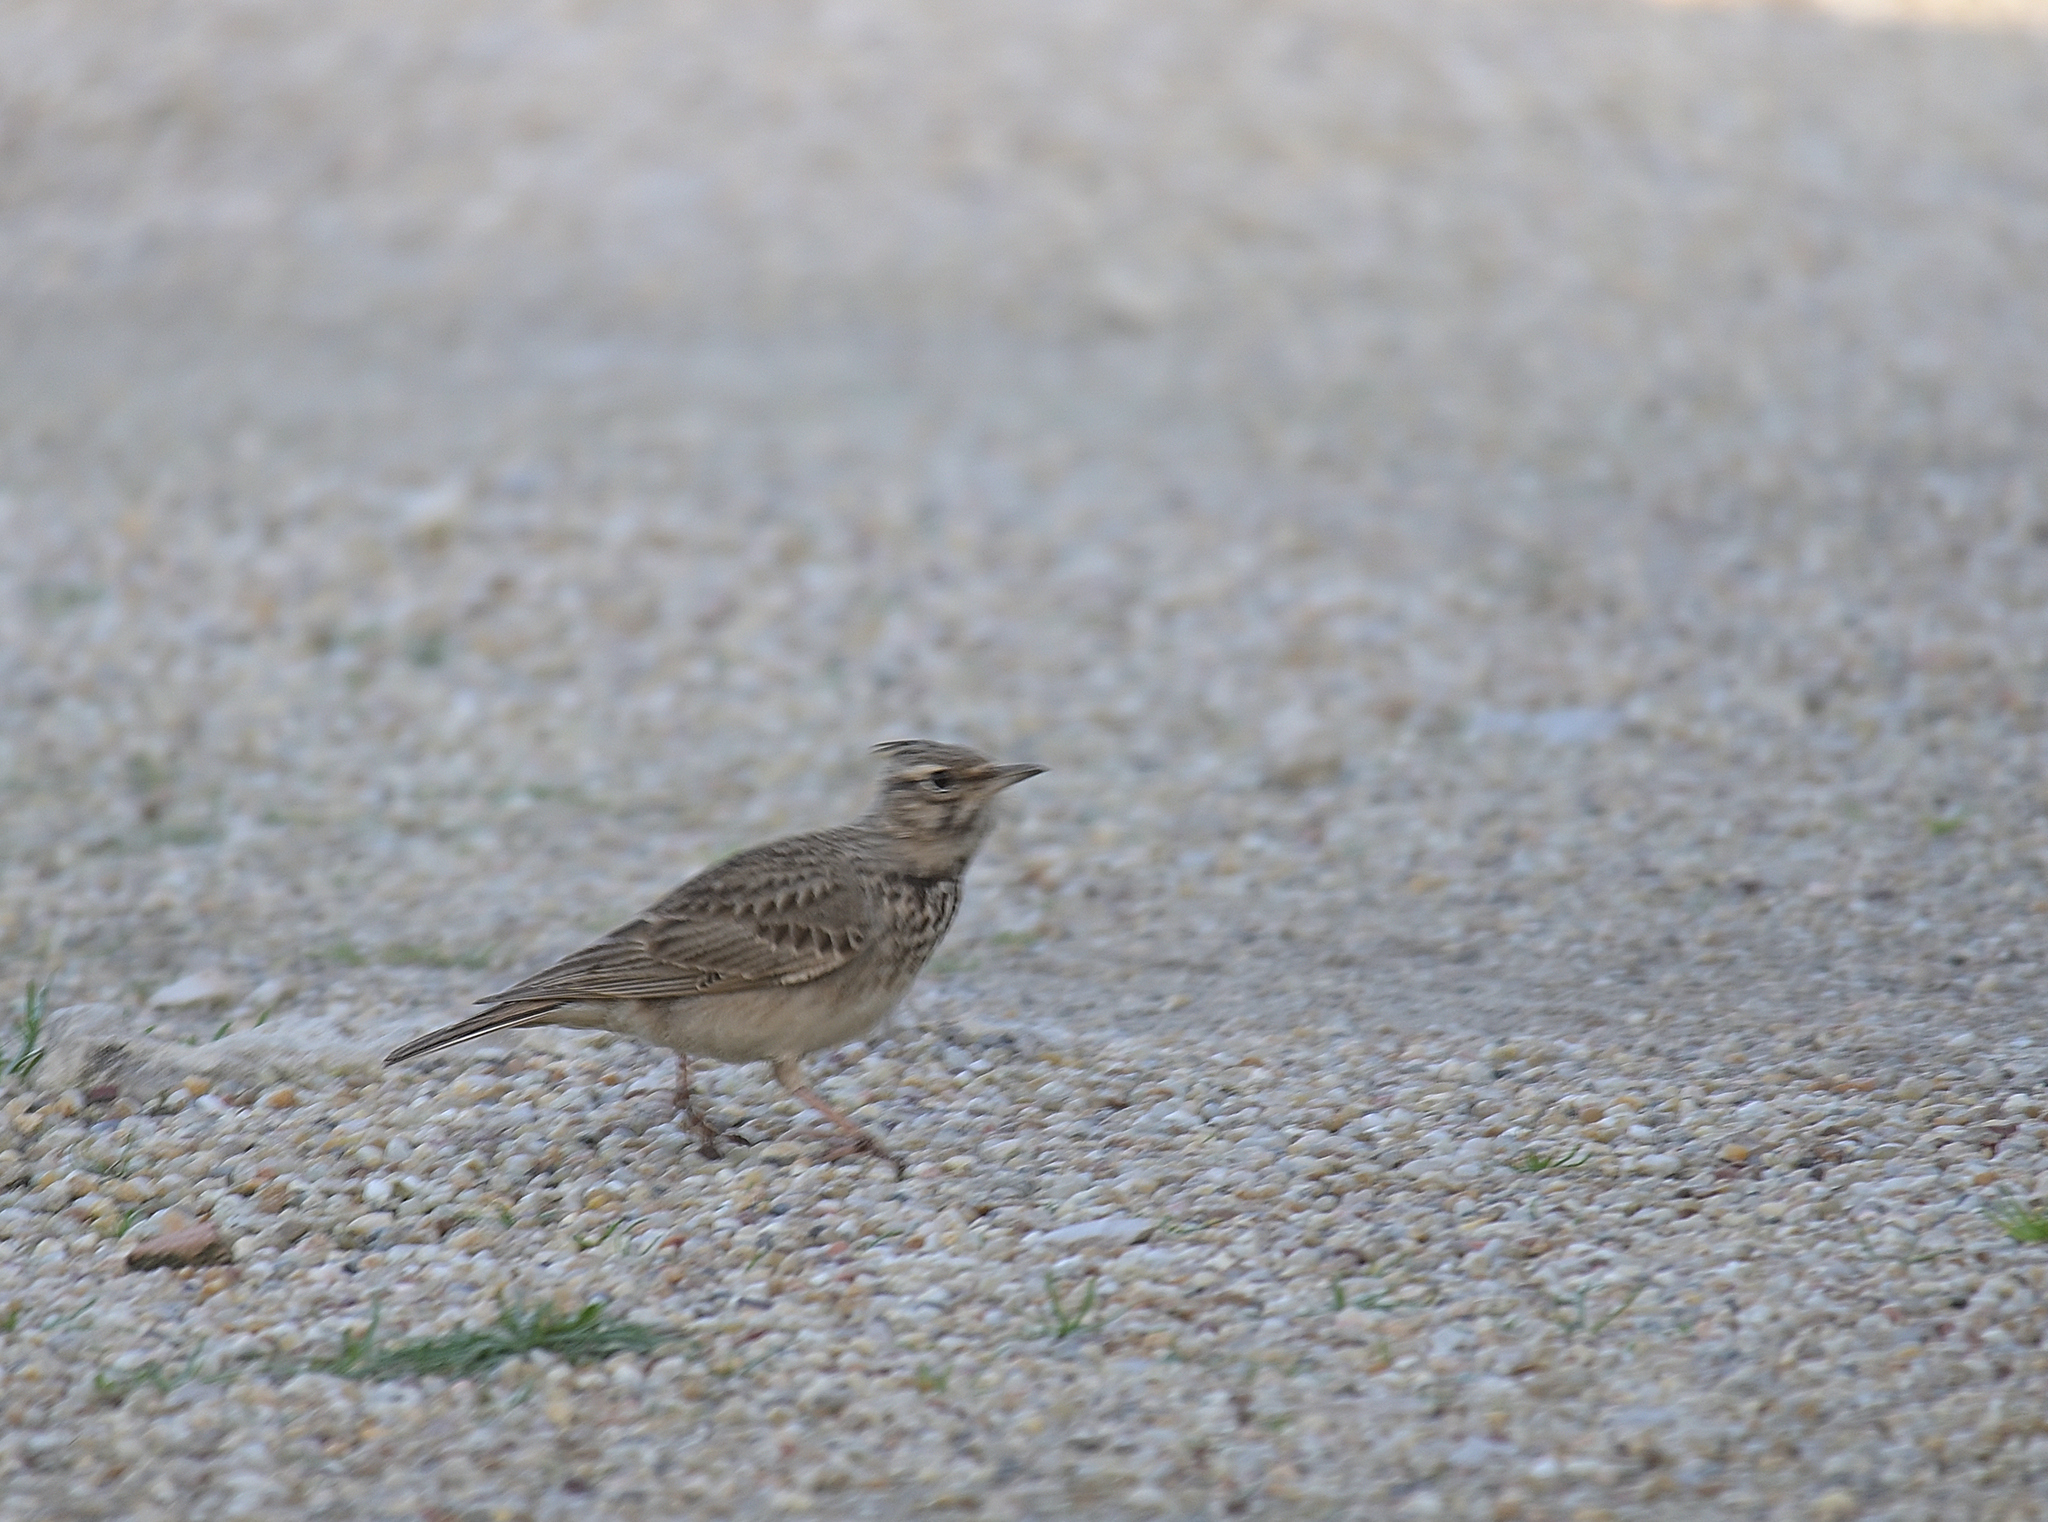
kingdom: Animalia
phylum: Chordata
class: Aves
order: Passeriformes
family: Alaudidae
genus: Galerida
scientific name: Galerida cristata
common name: Crested lark
